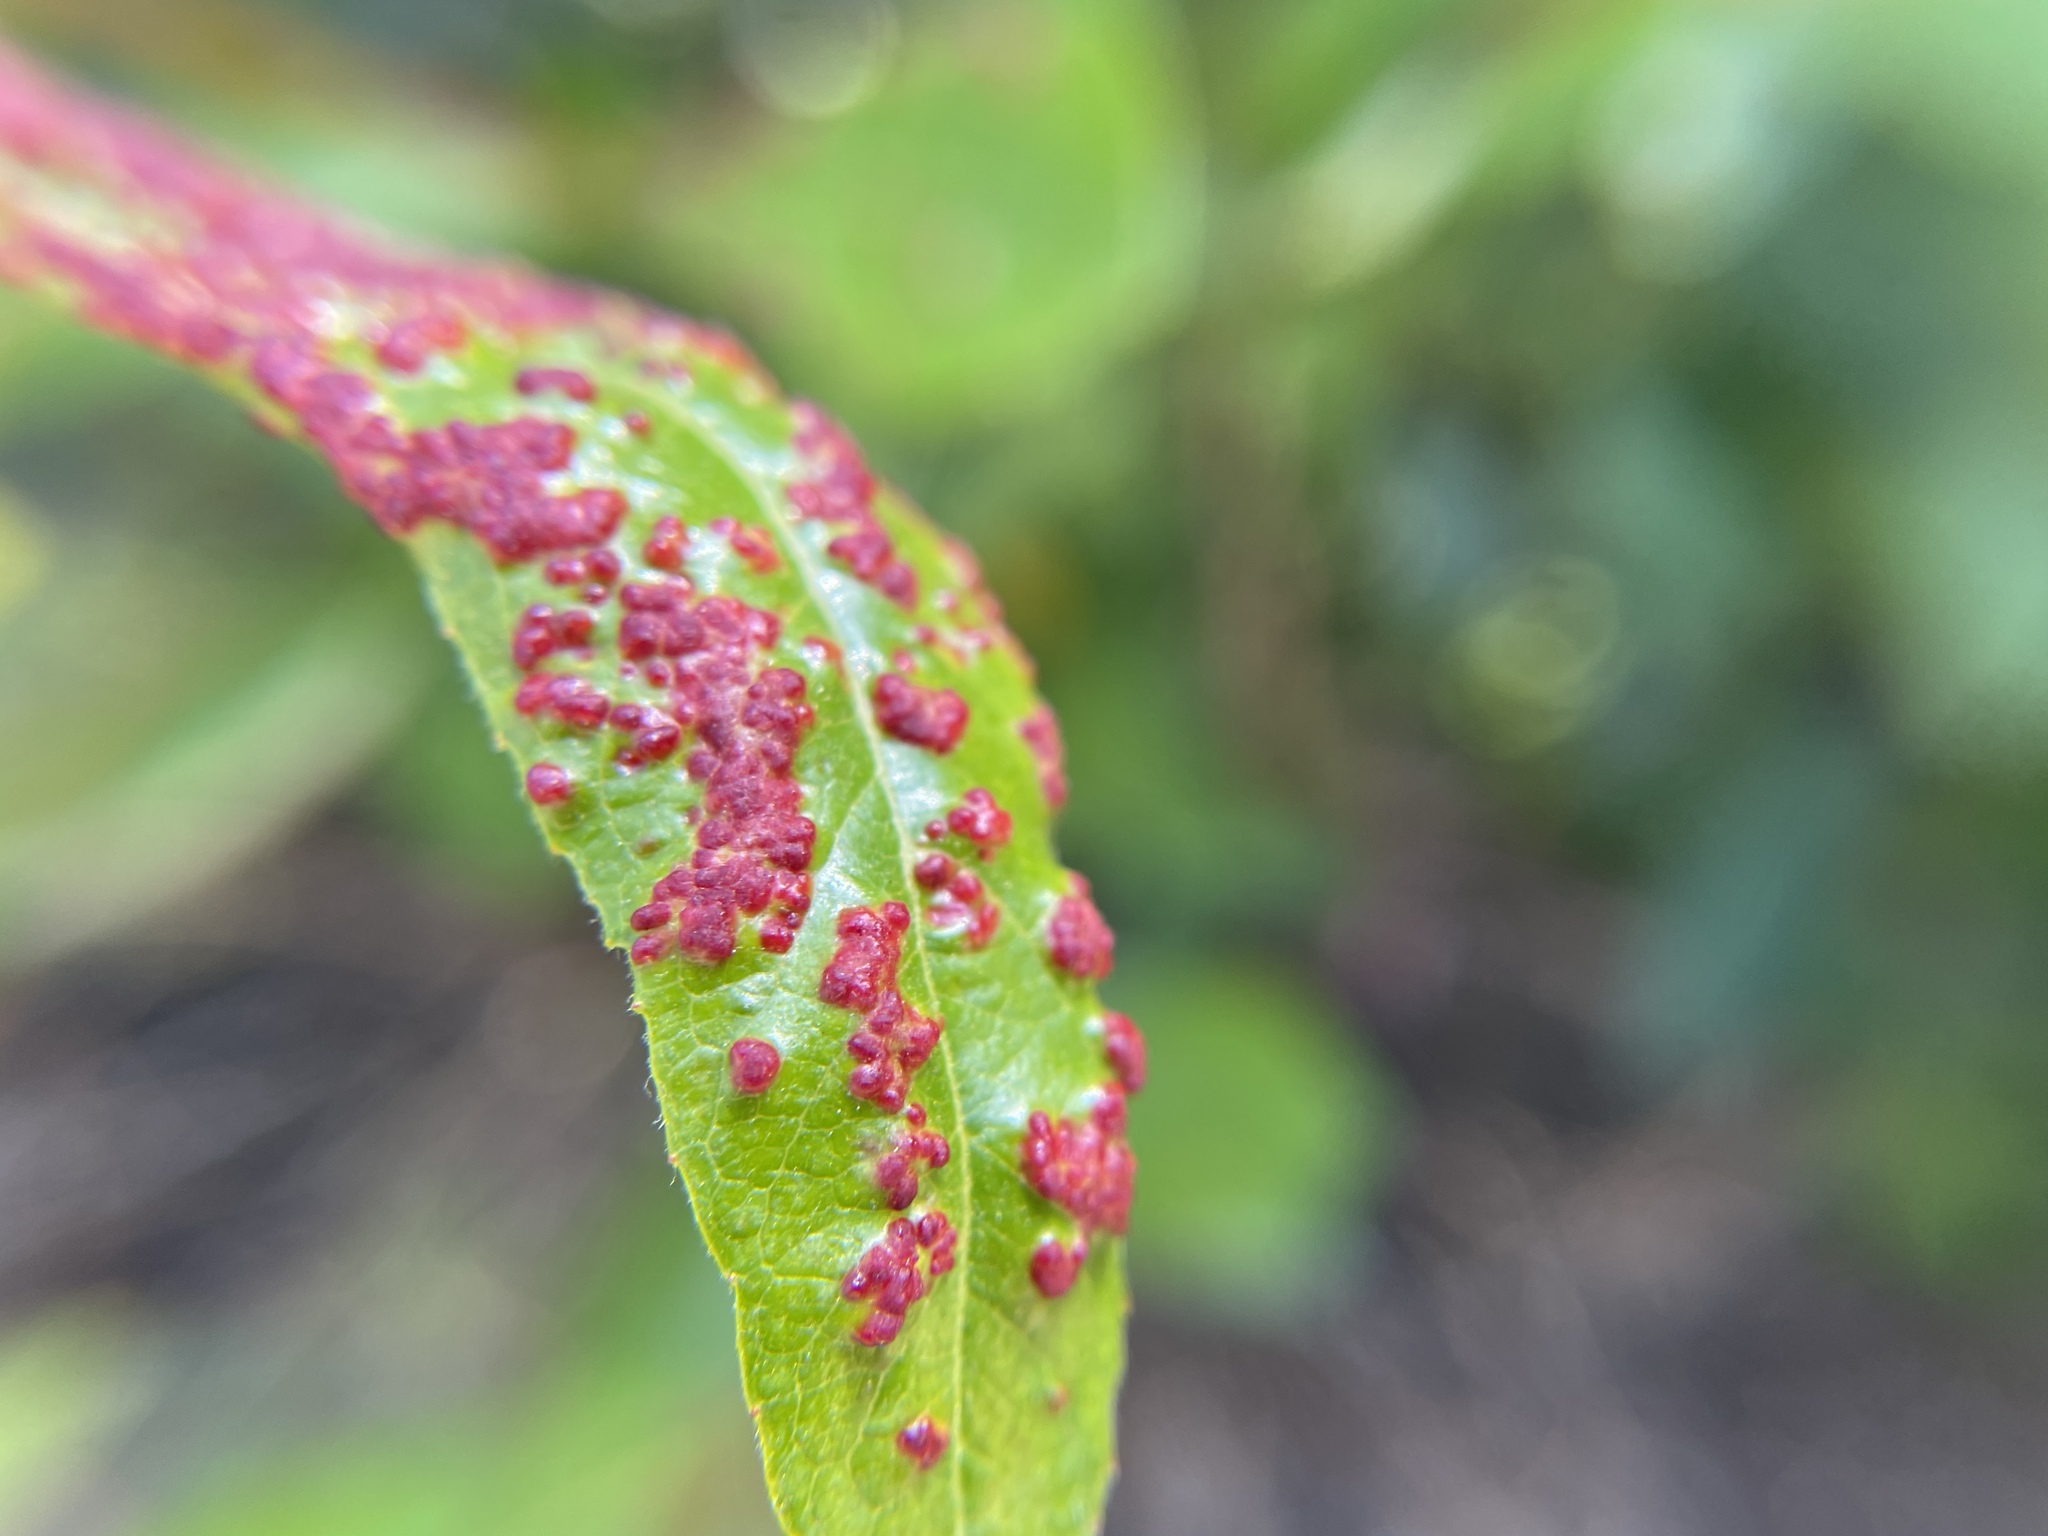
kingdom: Animalia
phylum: Arthropoda
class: Arachnida
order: Trombidiformes
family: Eriophyidae
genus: Aculus
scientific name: Aculus tetanothrix
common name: Willow bead gall mite
